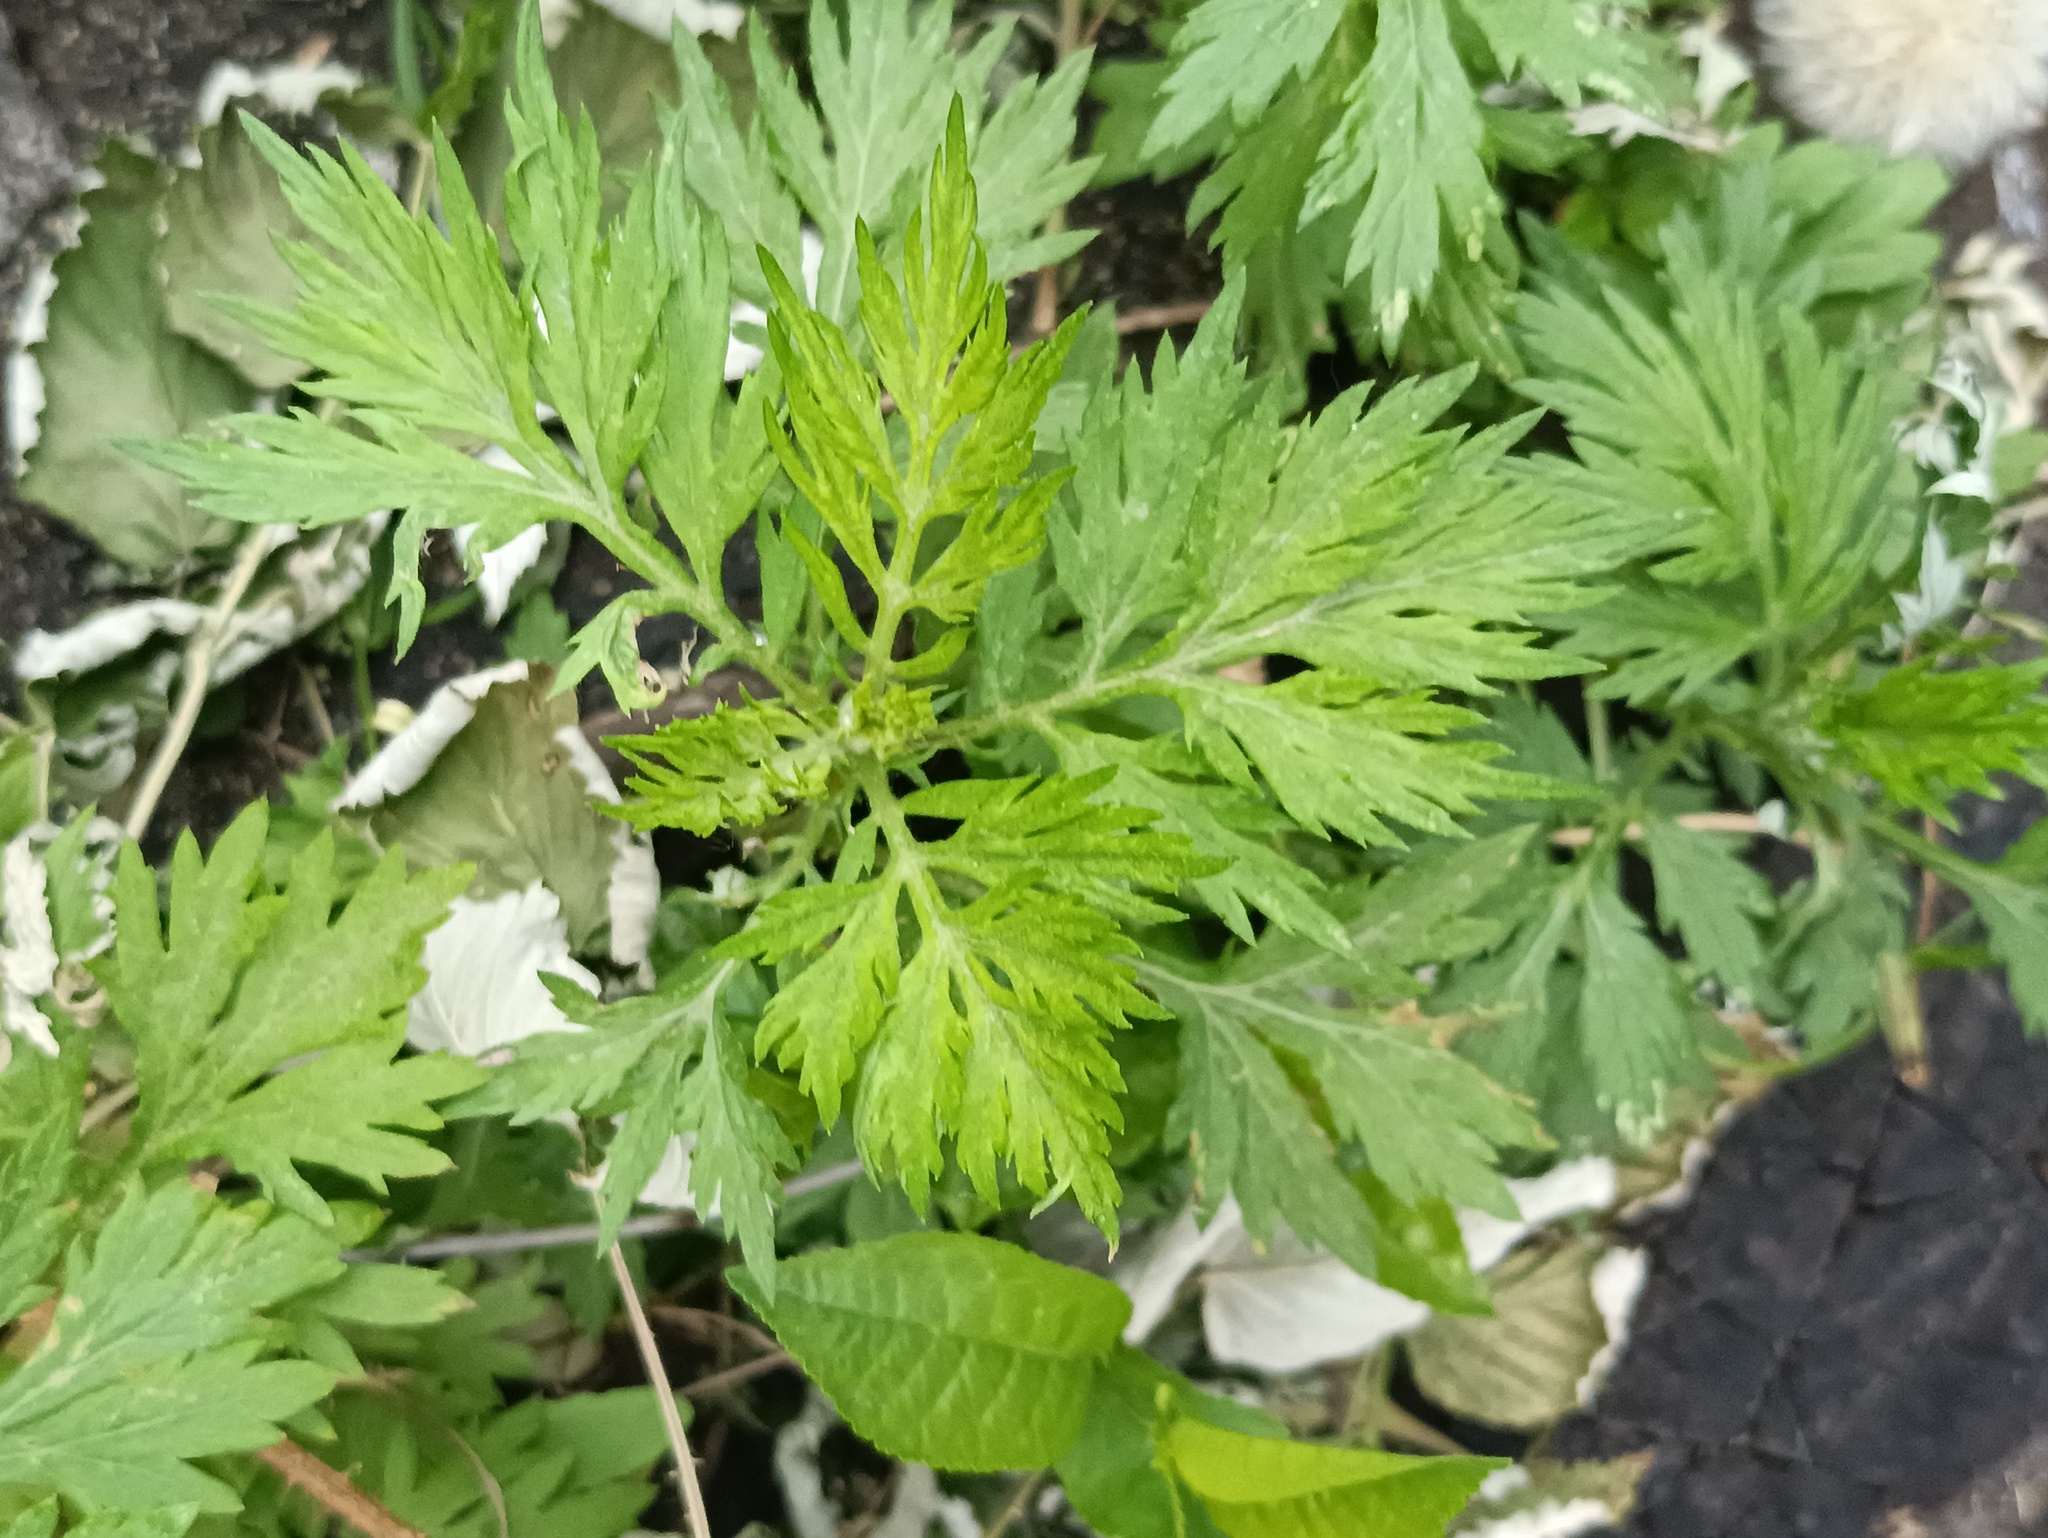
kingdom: Plantae
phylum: Tracheophyta
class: Magnoliopsida
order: Asterales
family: Asteraceae
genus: Artemisia
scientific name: Artemisia vulgaris
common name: Mugwort
